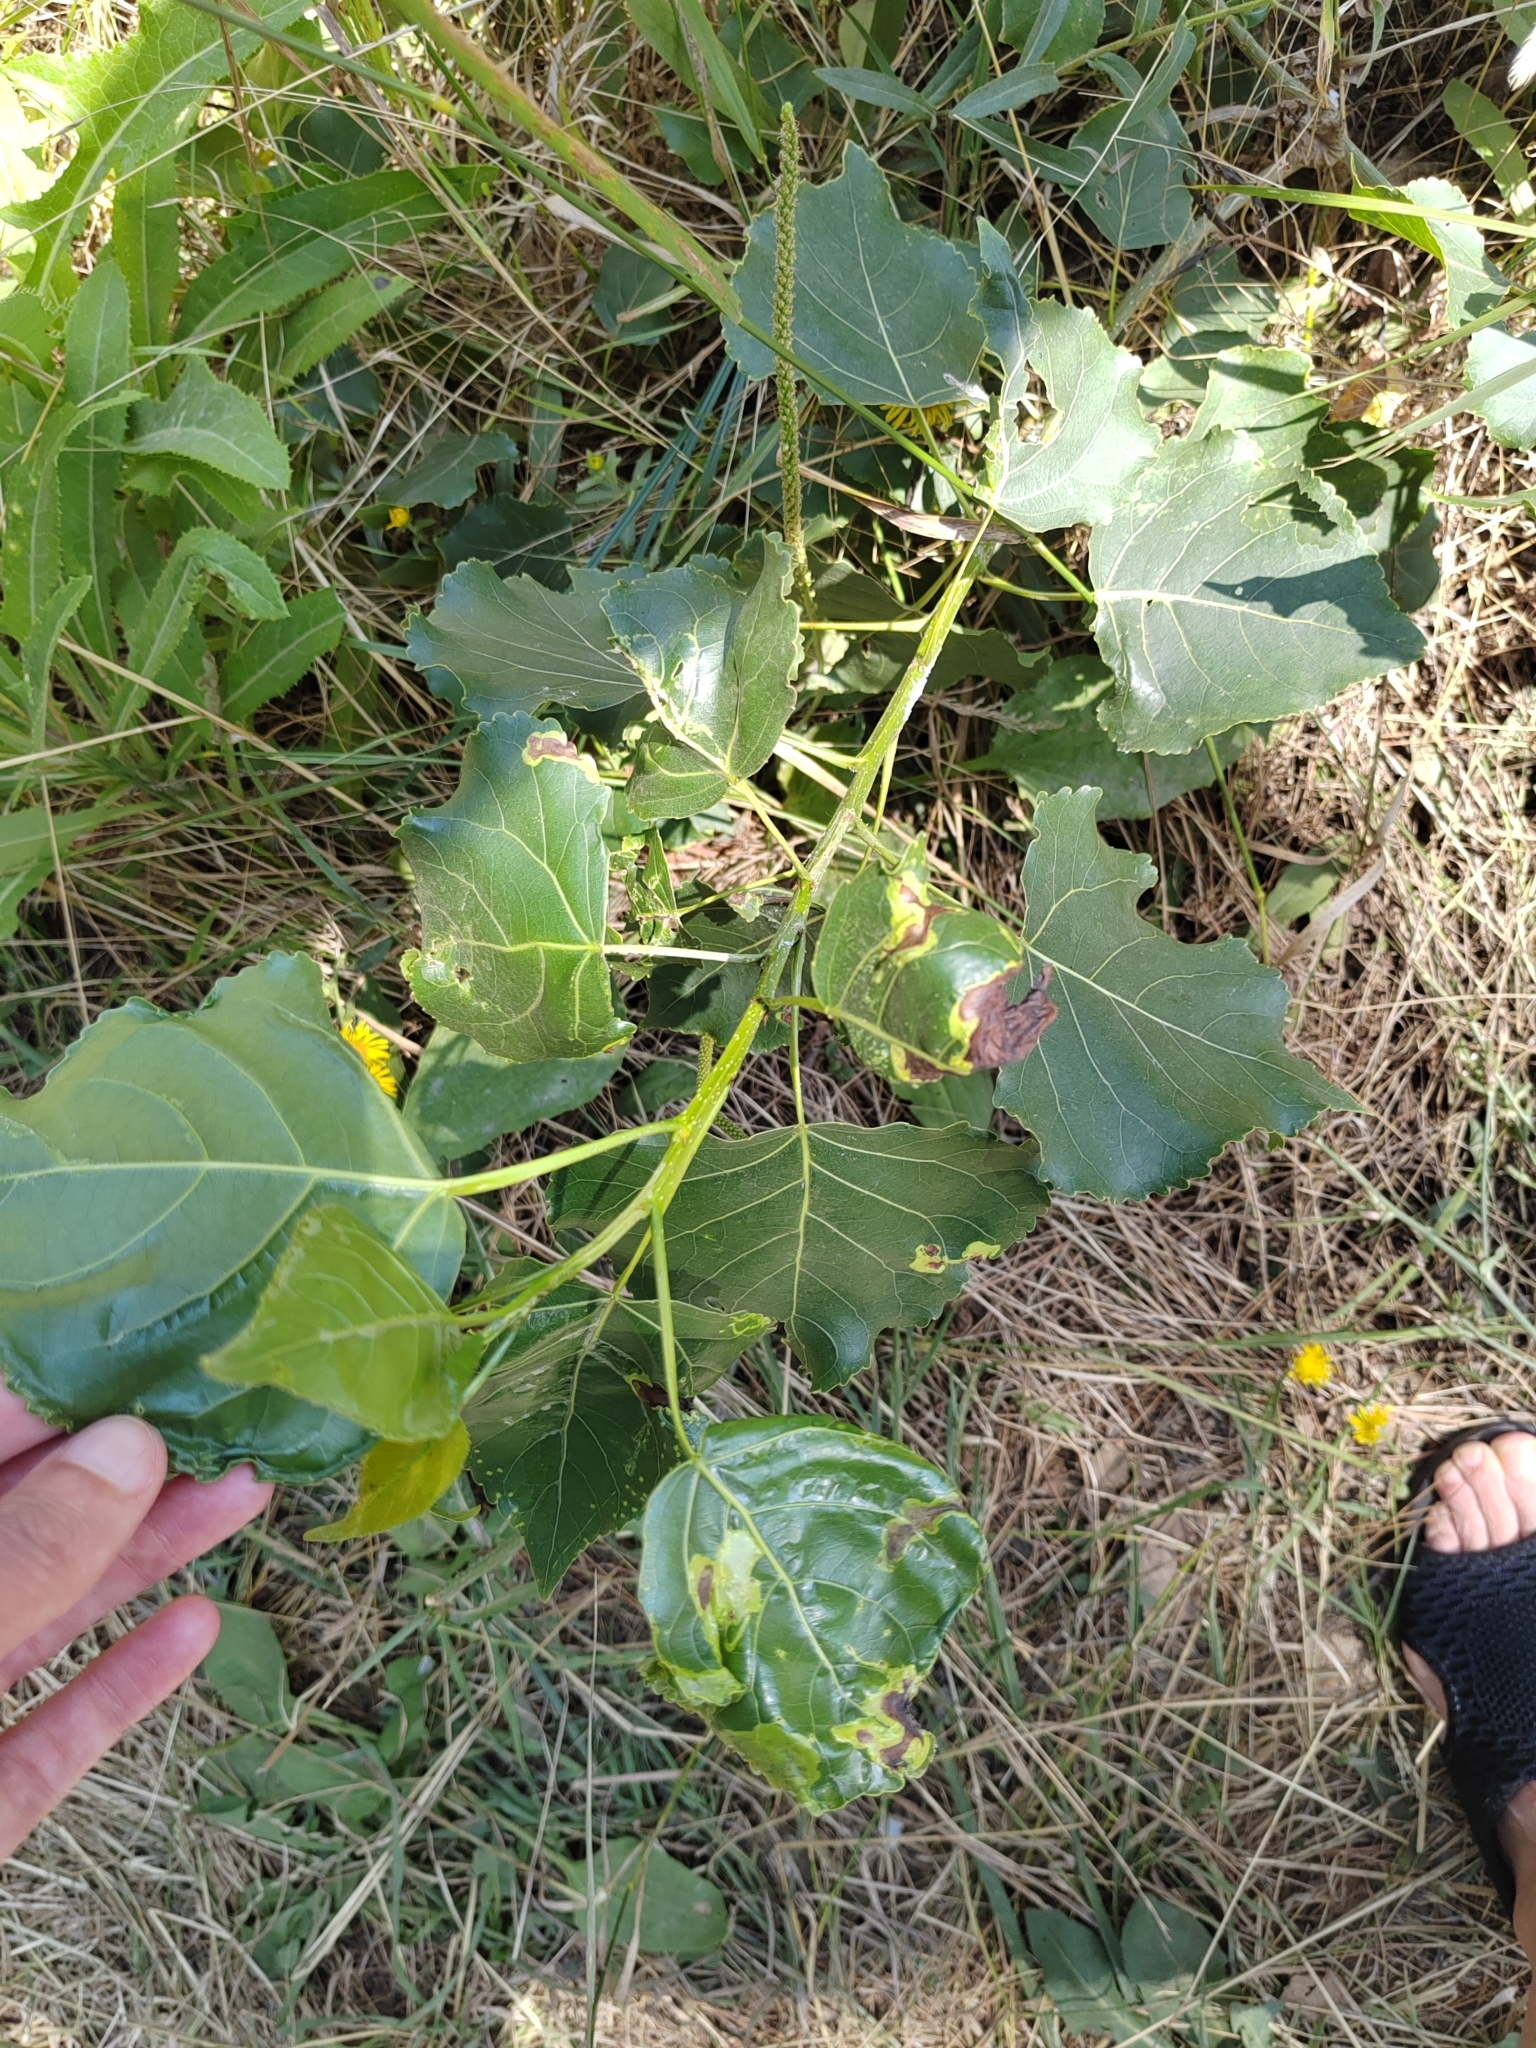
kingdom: Plantae
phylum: Tracheophyta
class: Magnoliopsida
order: Malpighiales
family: Salicaceae
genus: Populus
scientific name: Populus nigra
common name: Black poplar
